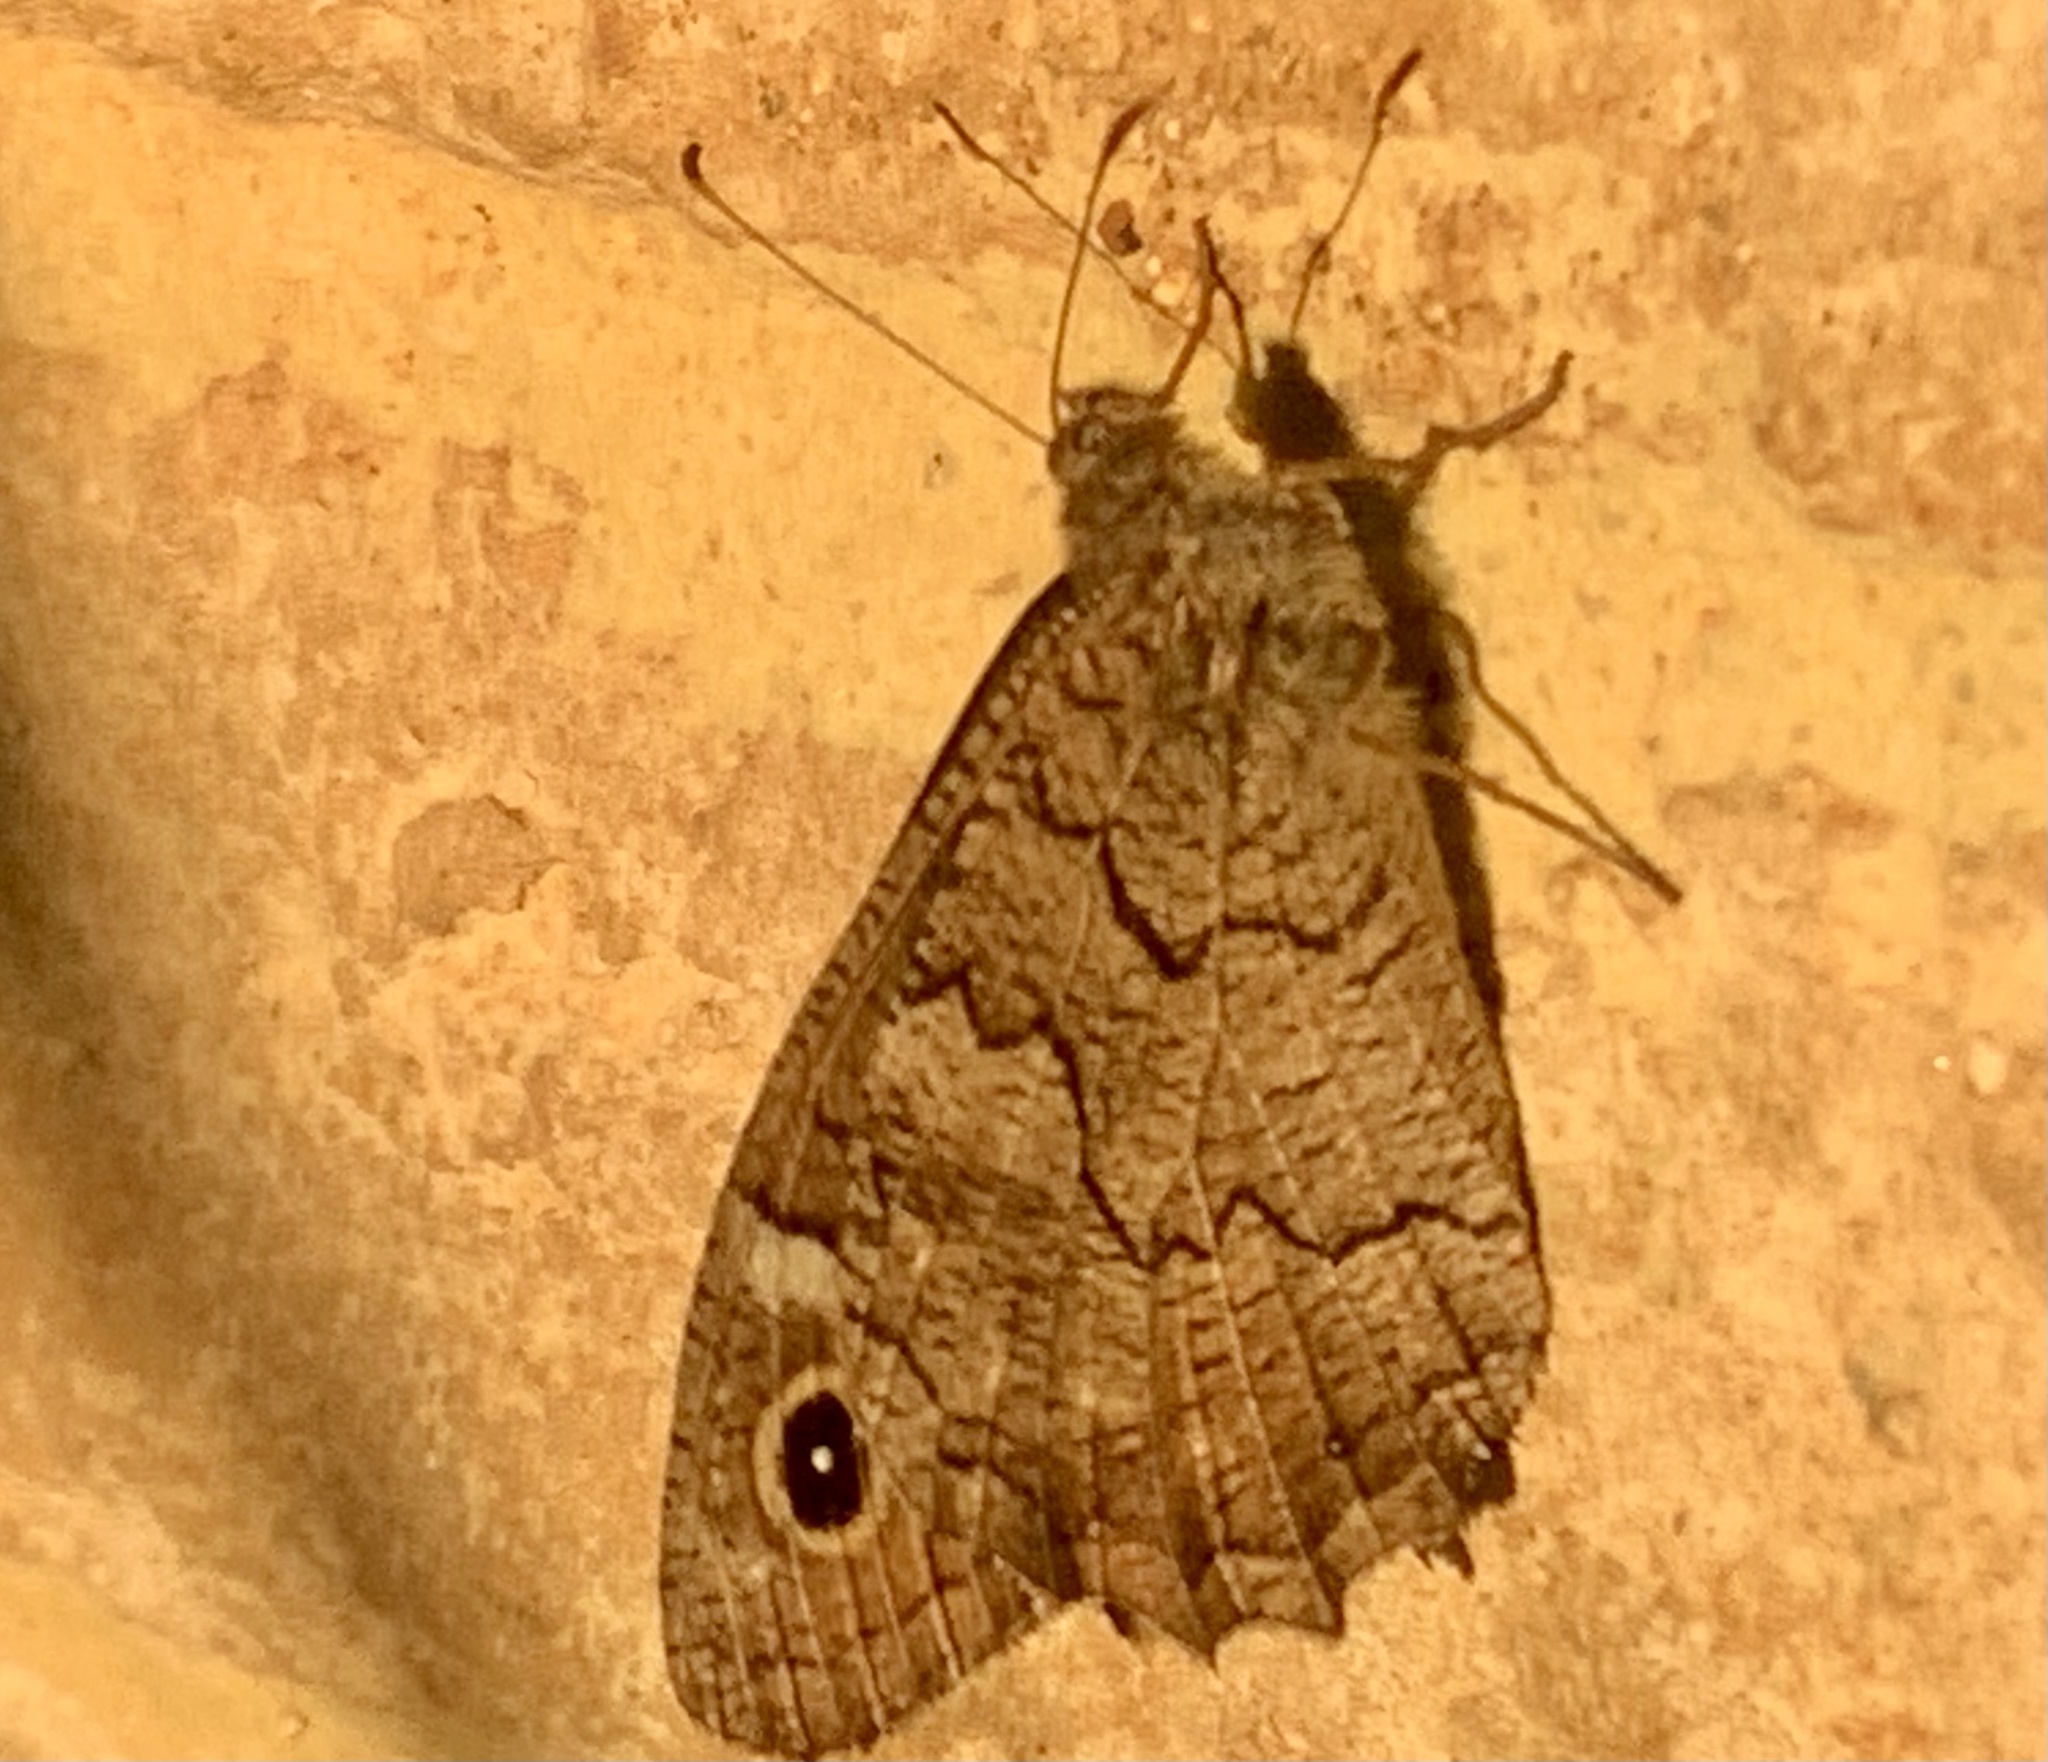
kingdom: Animalia
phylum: Arthropoda
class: Insecta
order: Lepidoptera
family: Nymphalidae
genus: Hipparchia
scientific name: Hipparchia fatua
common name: Freyer's grayling
